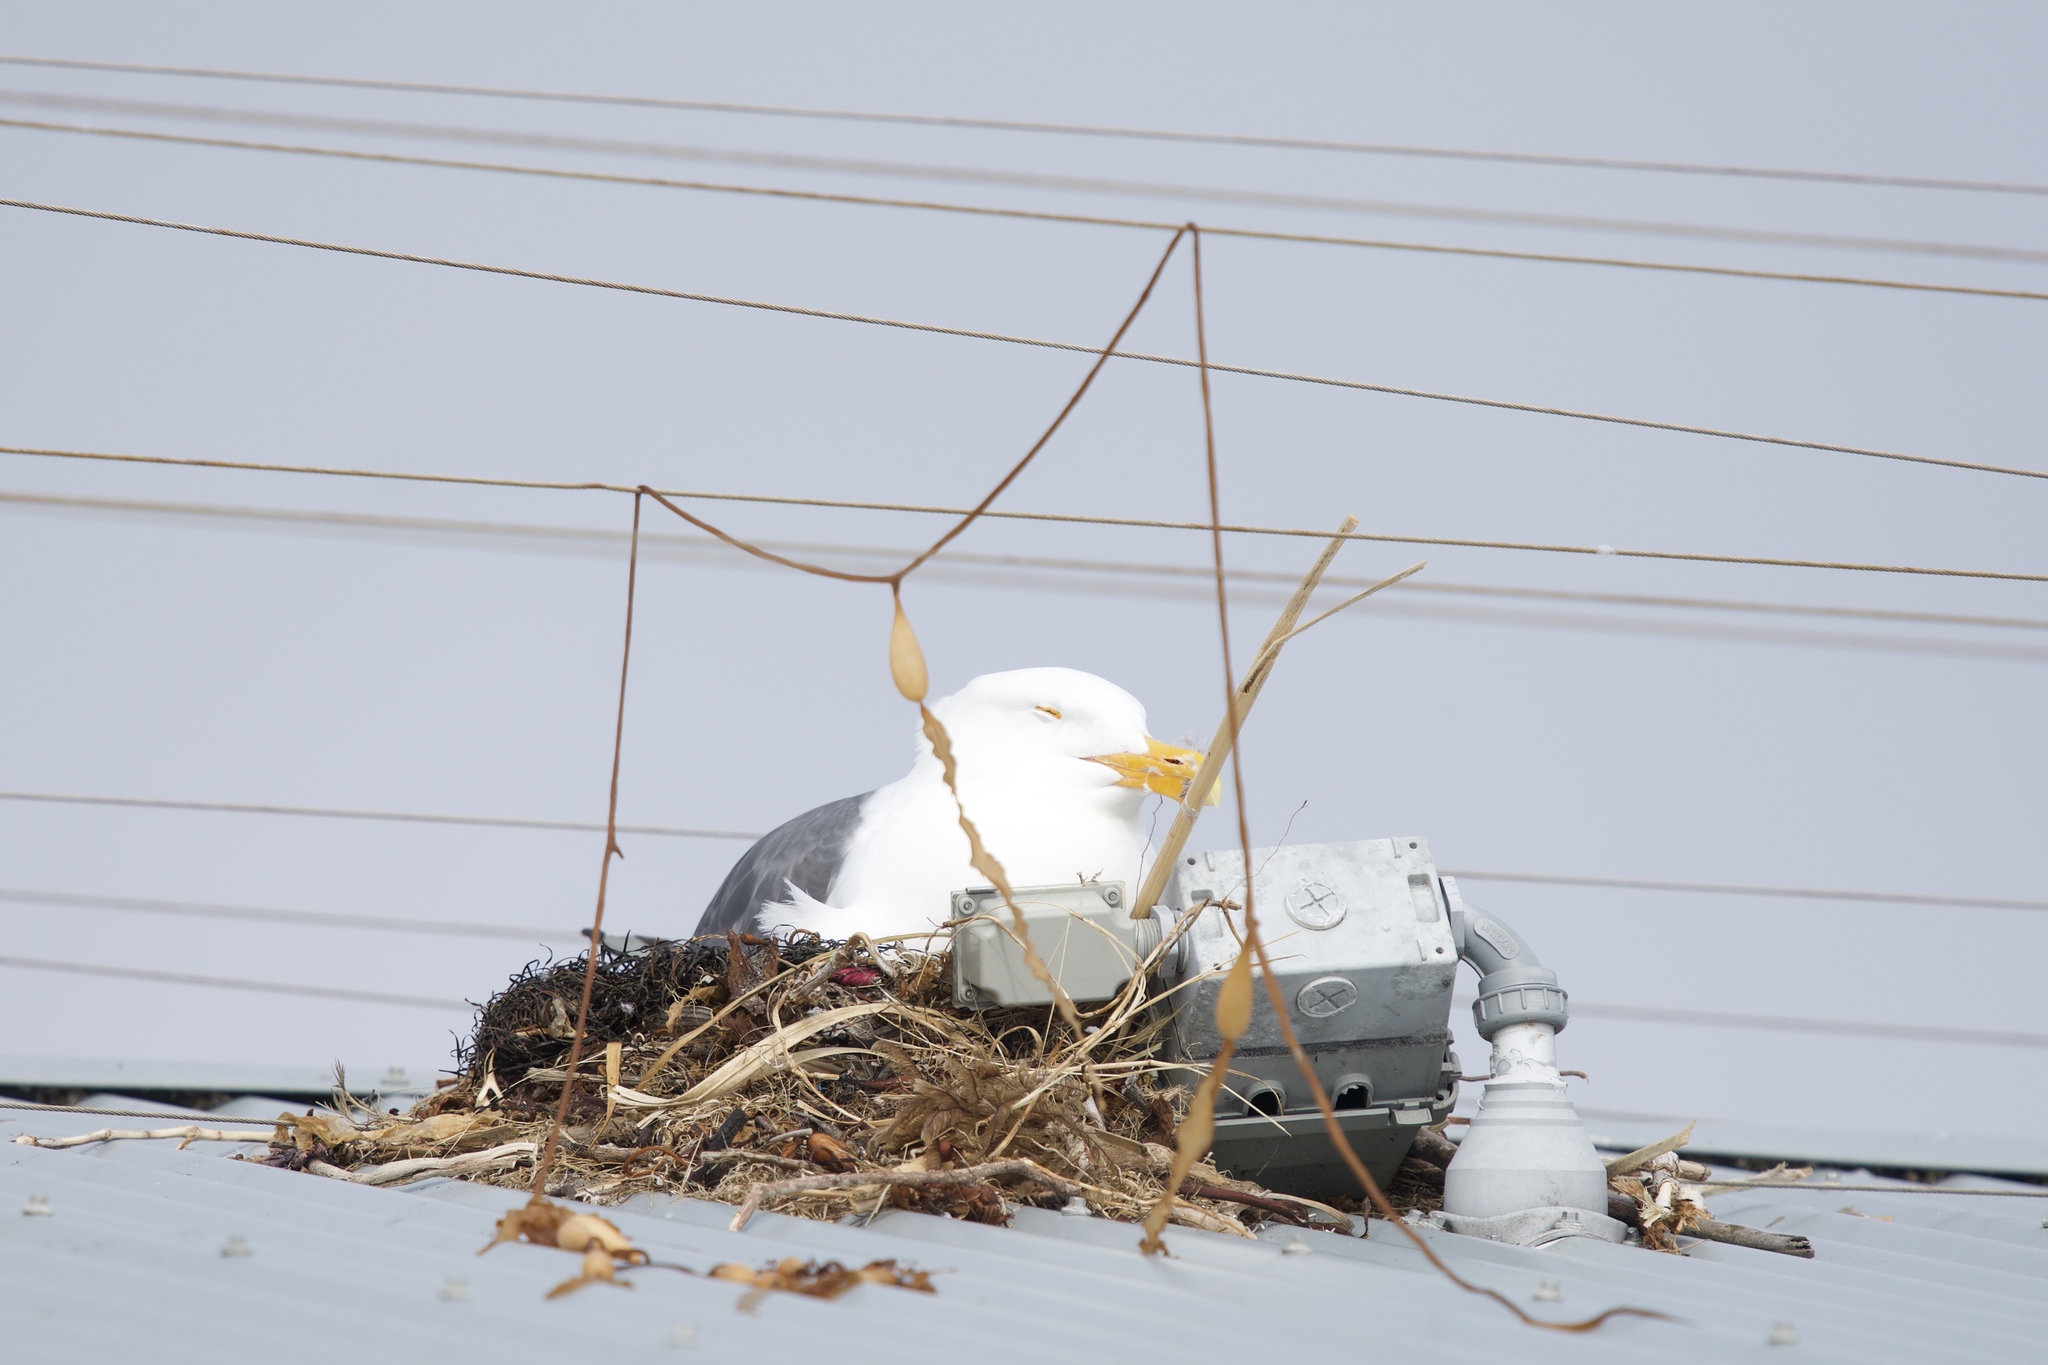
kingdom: Animalia
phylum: Chordata
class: Aves
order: Charadriiformes
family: Laridae
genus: Larus
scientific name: Larus occidentalis
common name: Western gull
